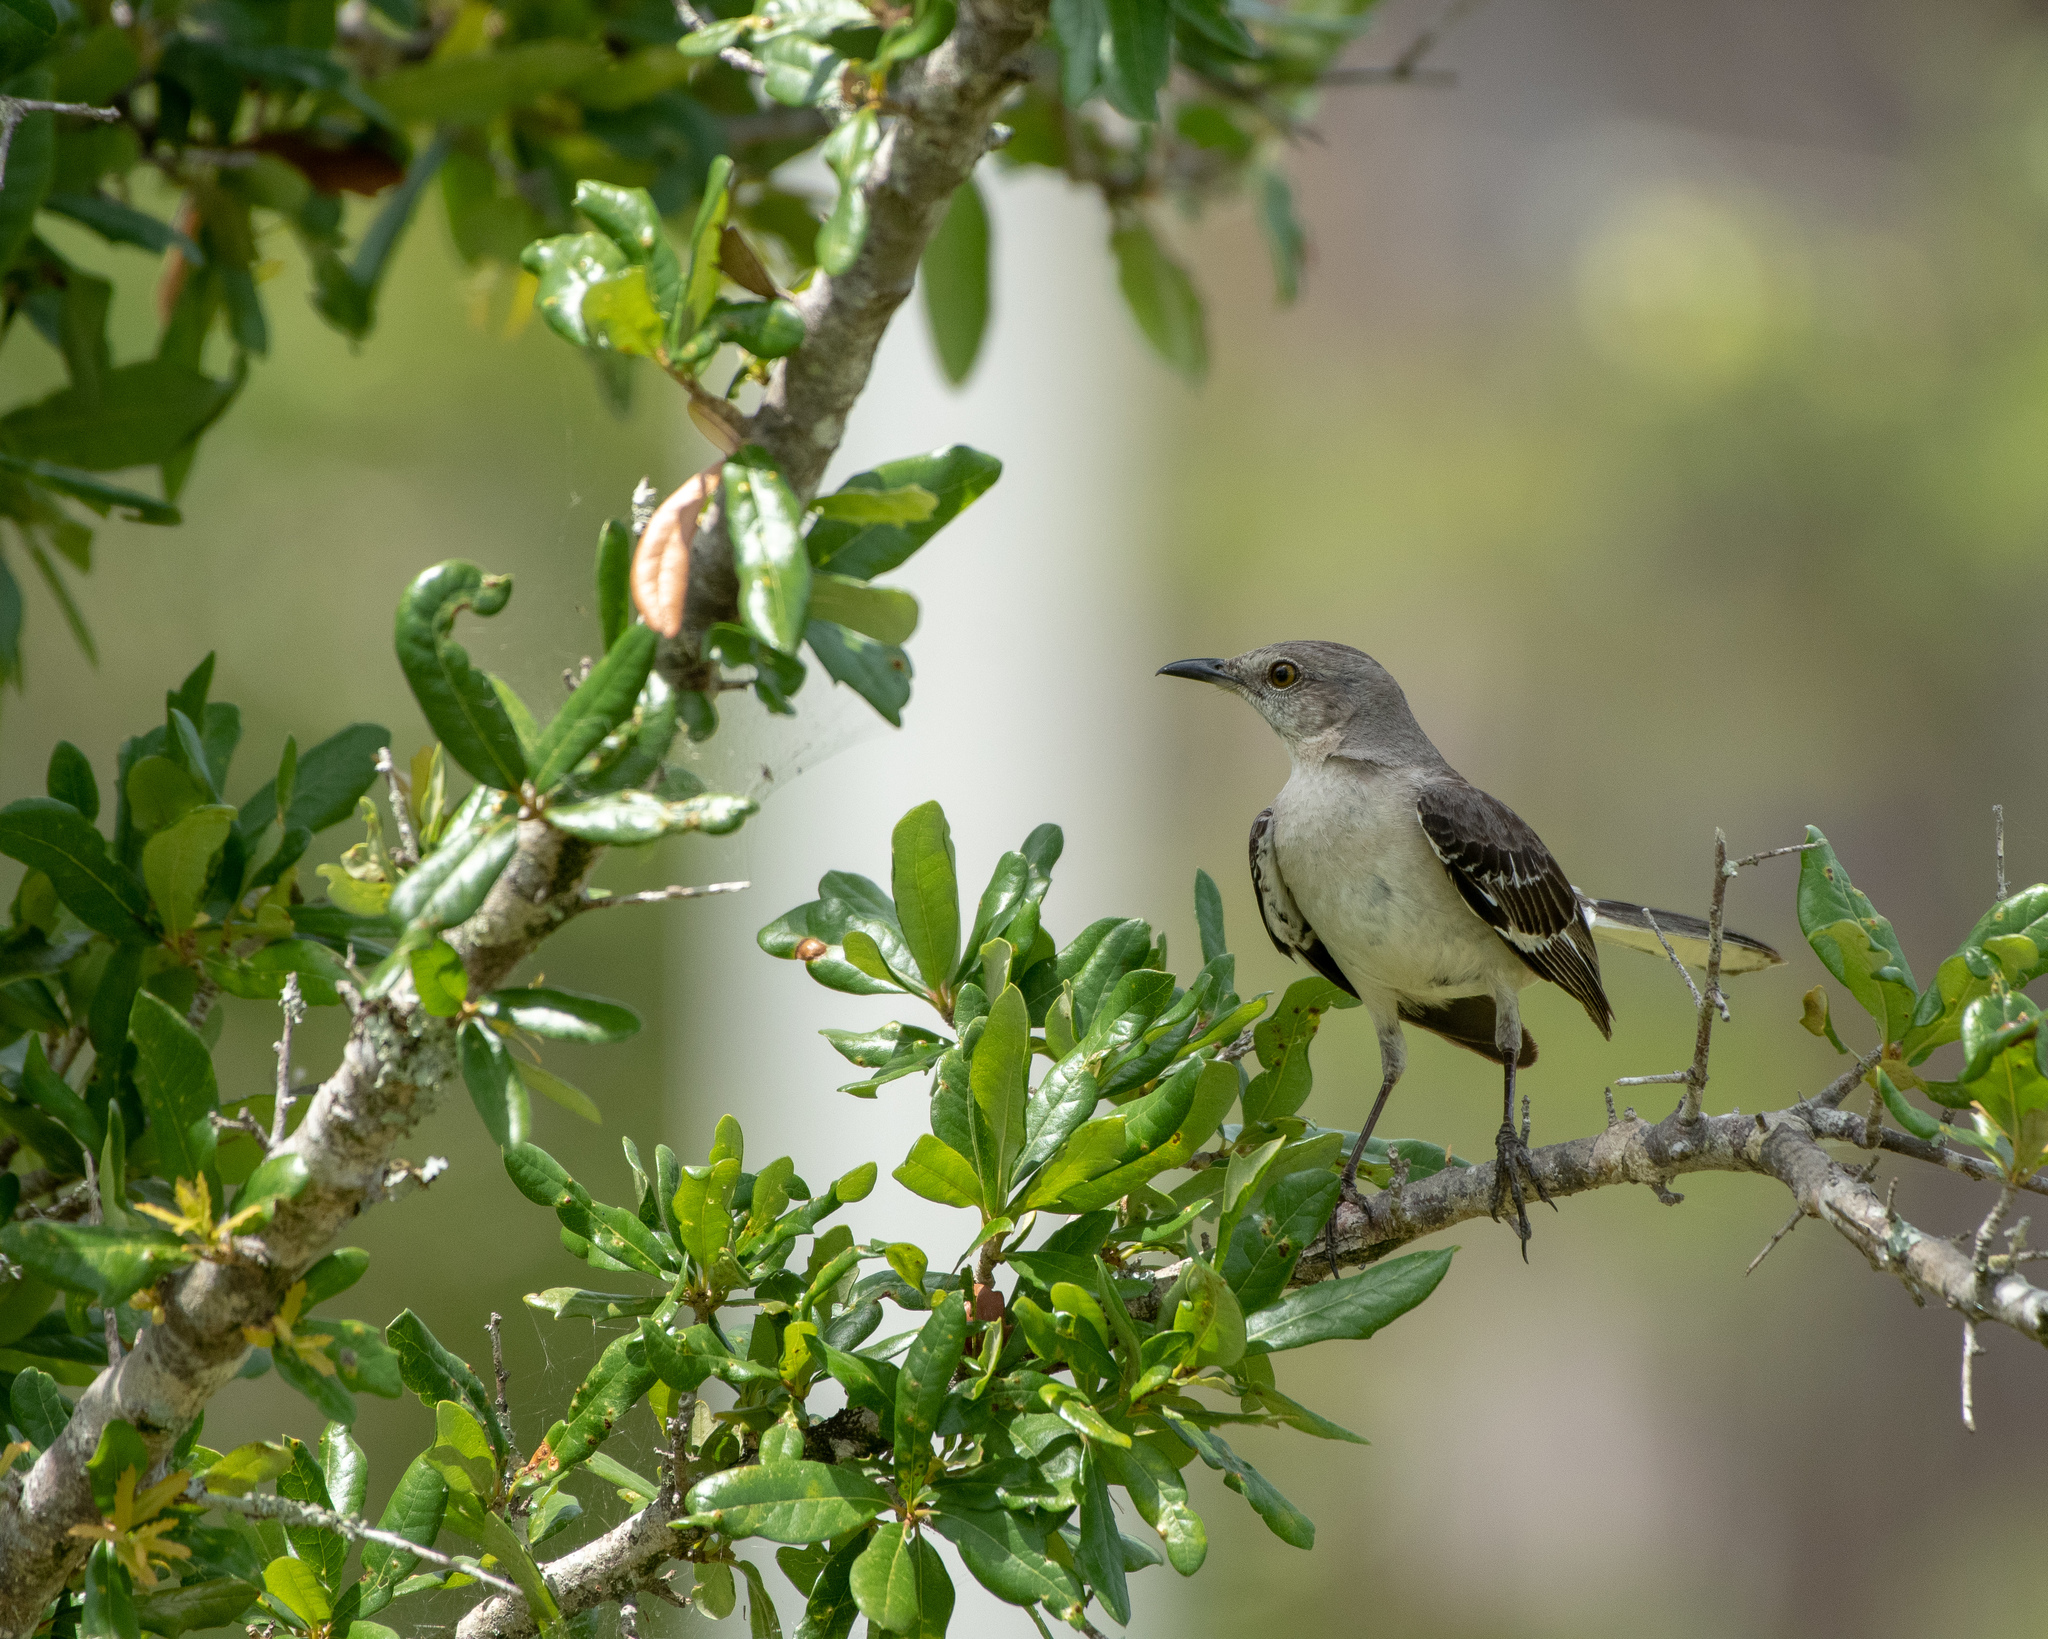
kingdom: Animalia
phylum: Chordata
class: Aves
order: Passeriformes
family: Mimidae
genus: Mimus
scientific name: Mimus polyglottos
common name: Northern mockingbird
